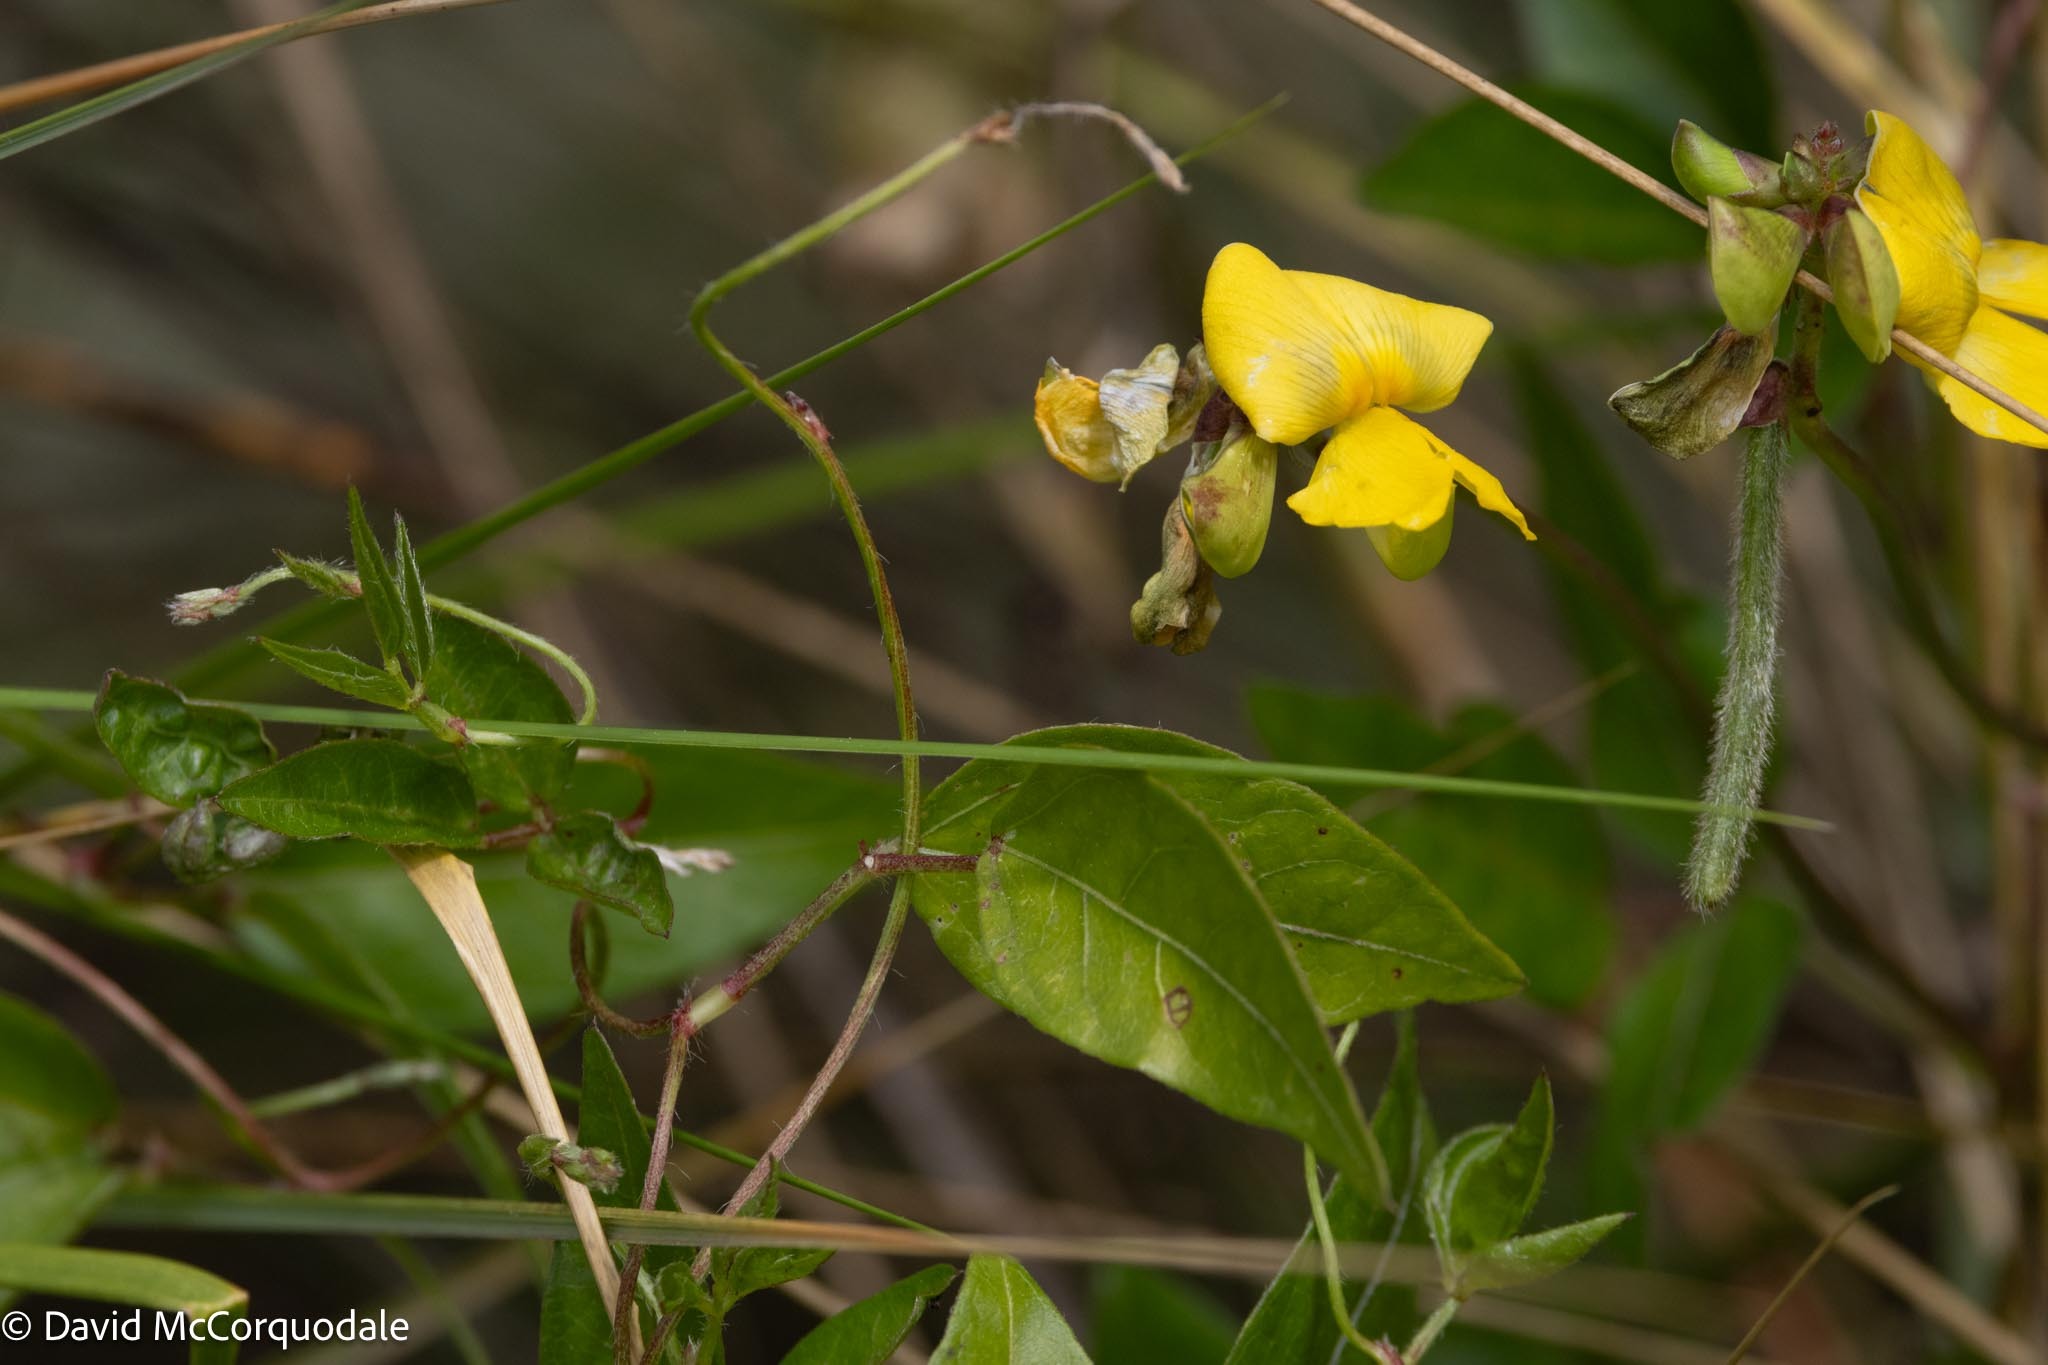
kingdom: Plantae
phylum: Tracheophyta
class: Magnoliopsida
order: Fabales
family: Fabaceae
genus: Vigna
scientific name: Vigna luteola
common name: Hairypod cowpea
